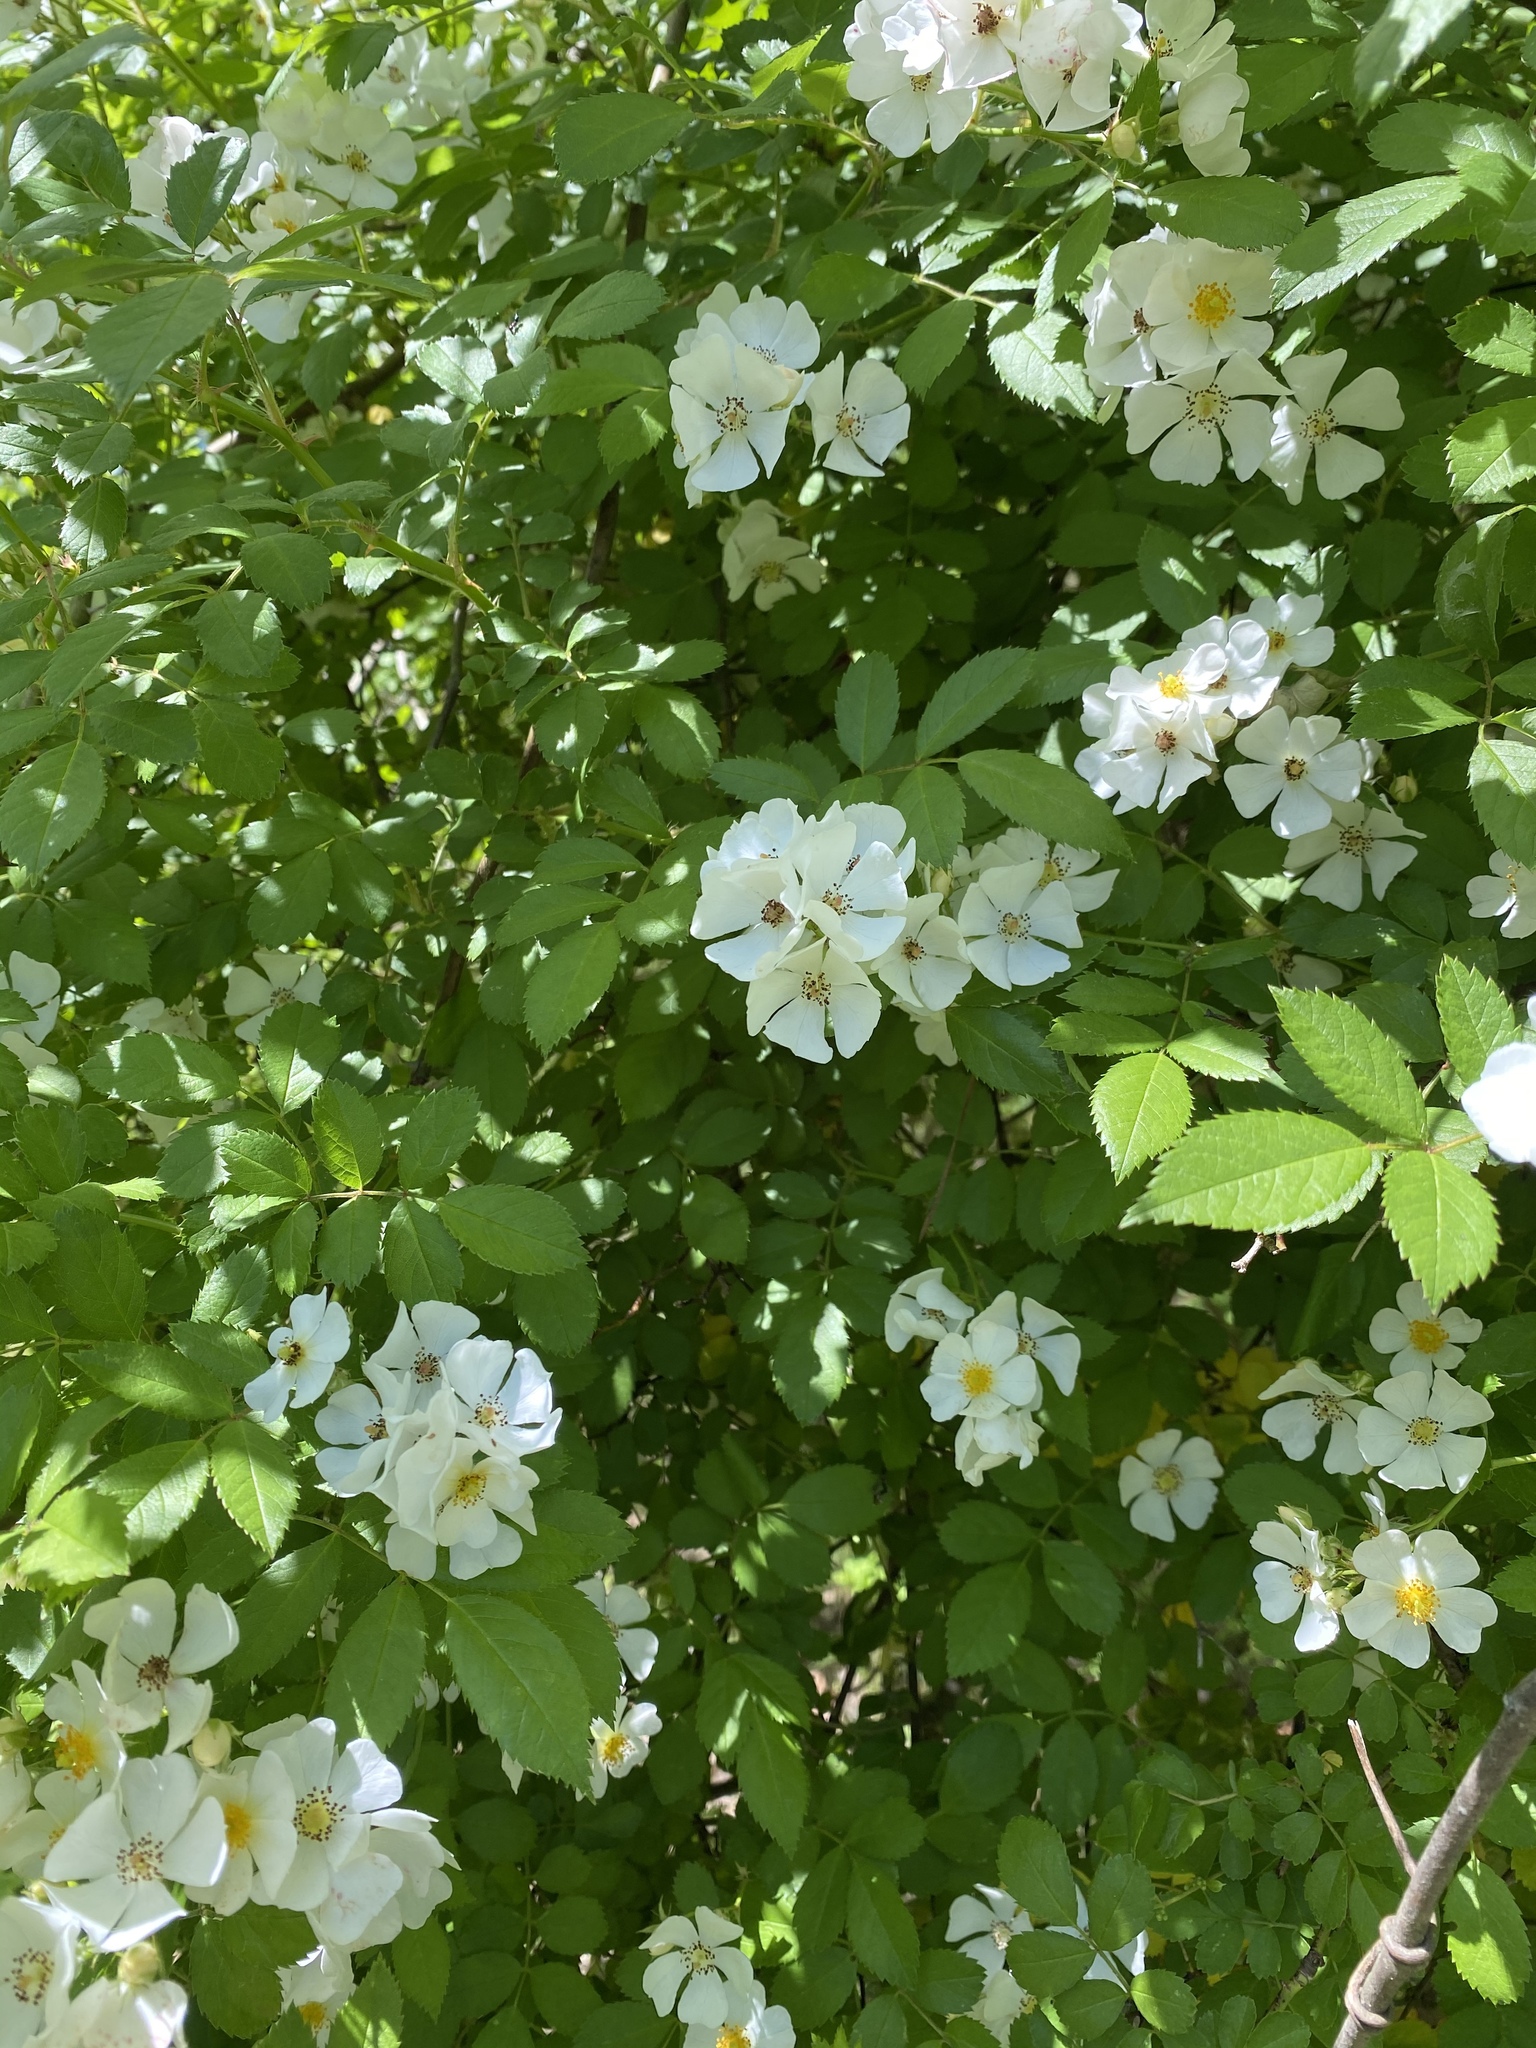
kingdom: Plantae
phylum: Tracheophyta
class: Magnoliopsida
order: Rosales
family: Rosaceae
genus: Rosa
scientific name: Rosa multiflora
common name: Multiflora rose
